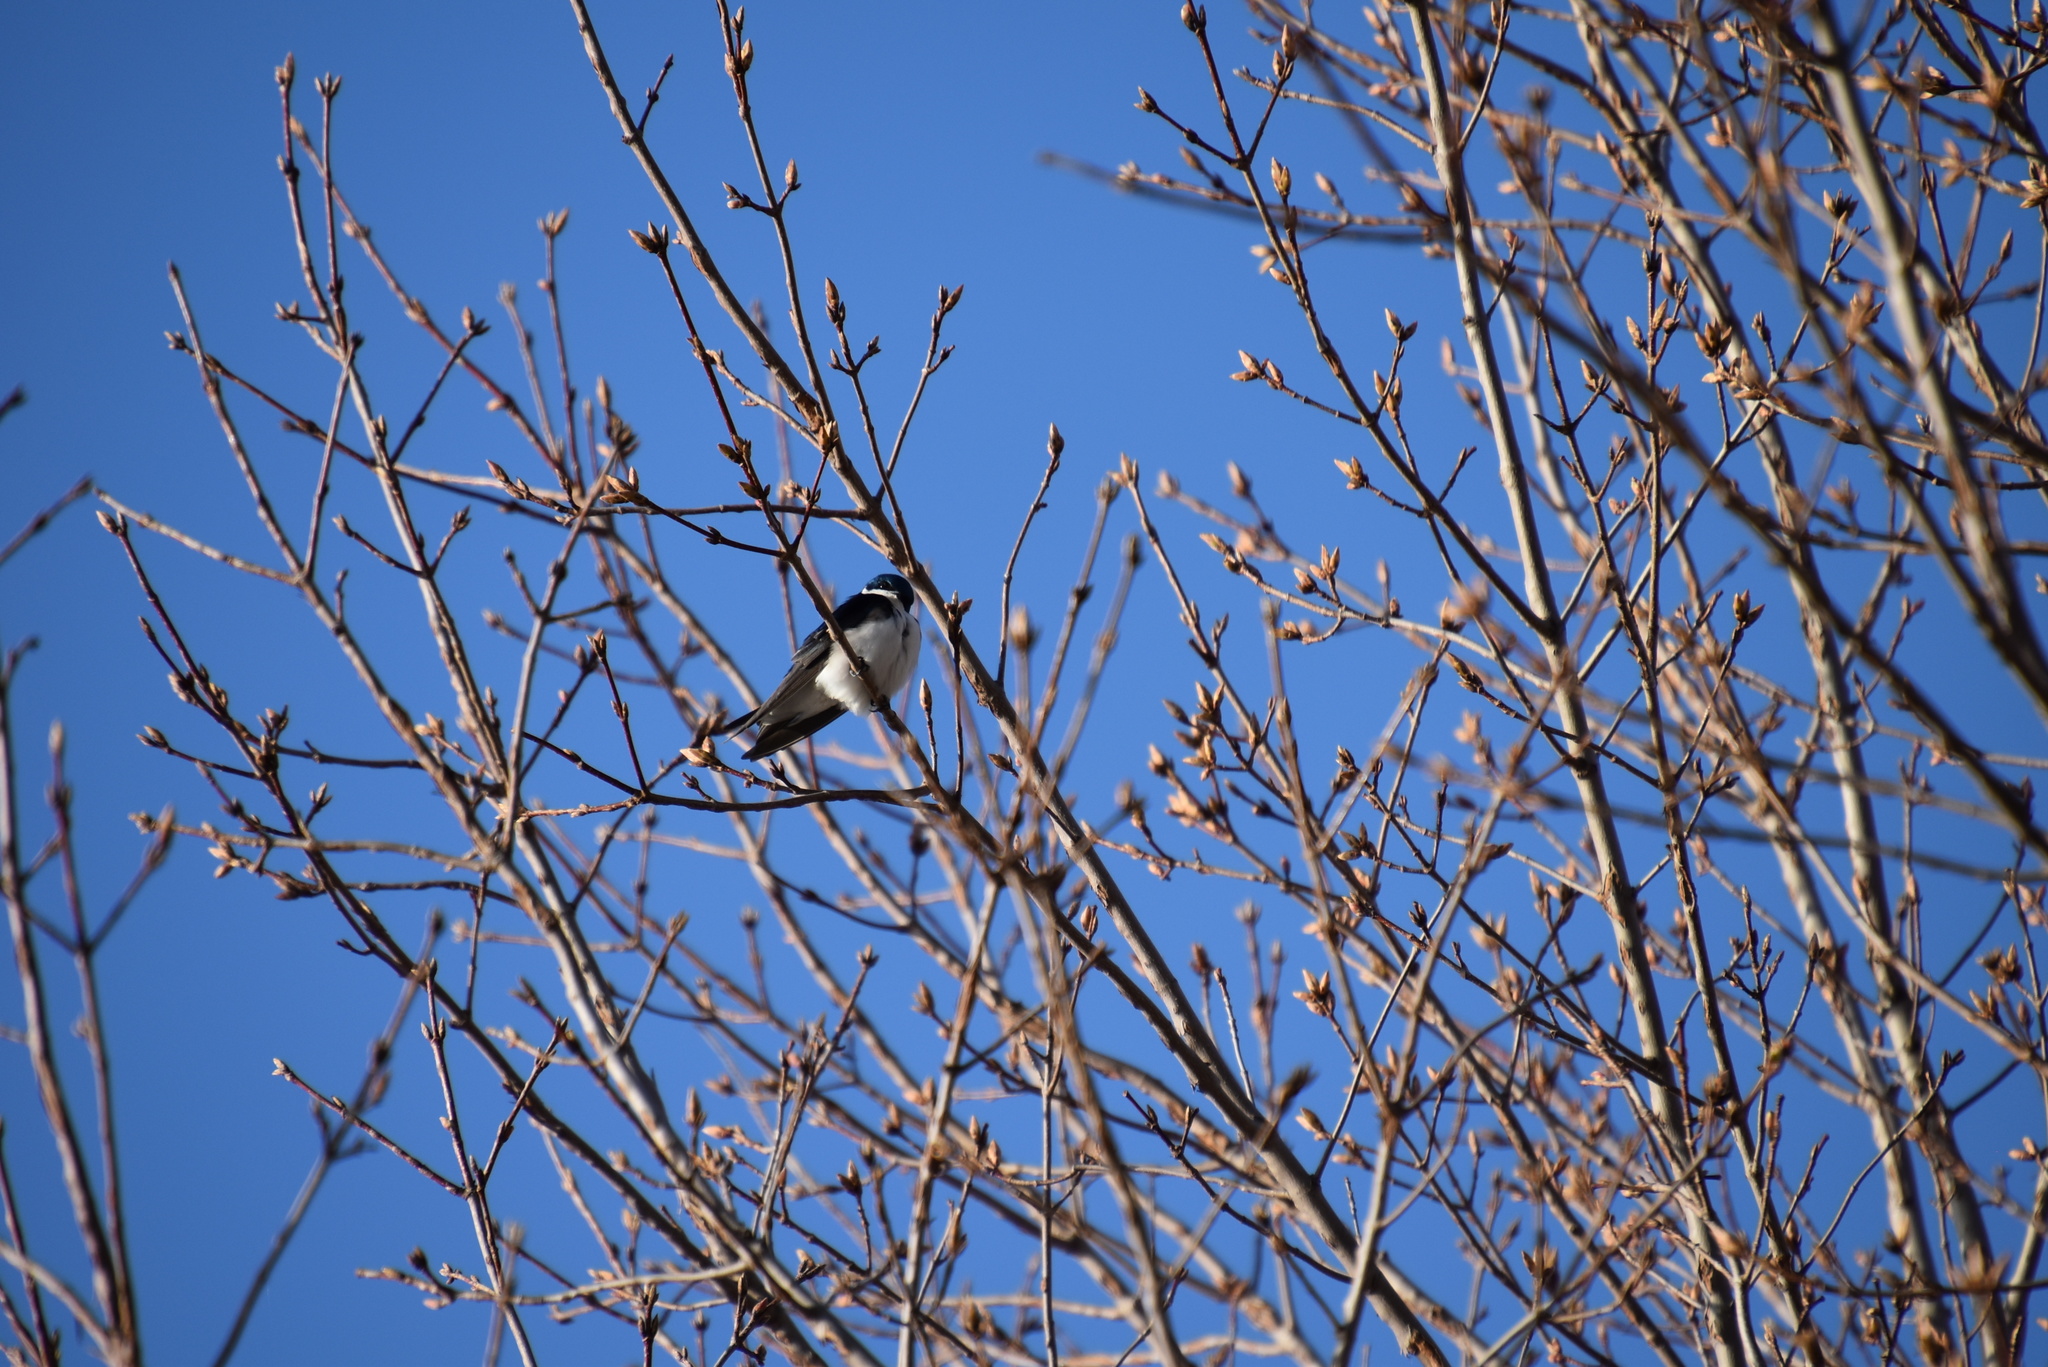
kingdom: Animalia
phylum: Chordata
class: Aves
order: Passeriformes
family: Hirundinidae
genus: Tachycineta
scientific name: Tachycineta bicolor
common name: Tree swallow
